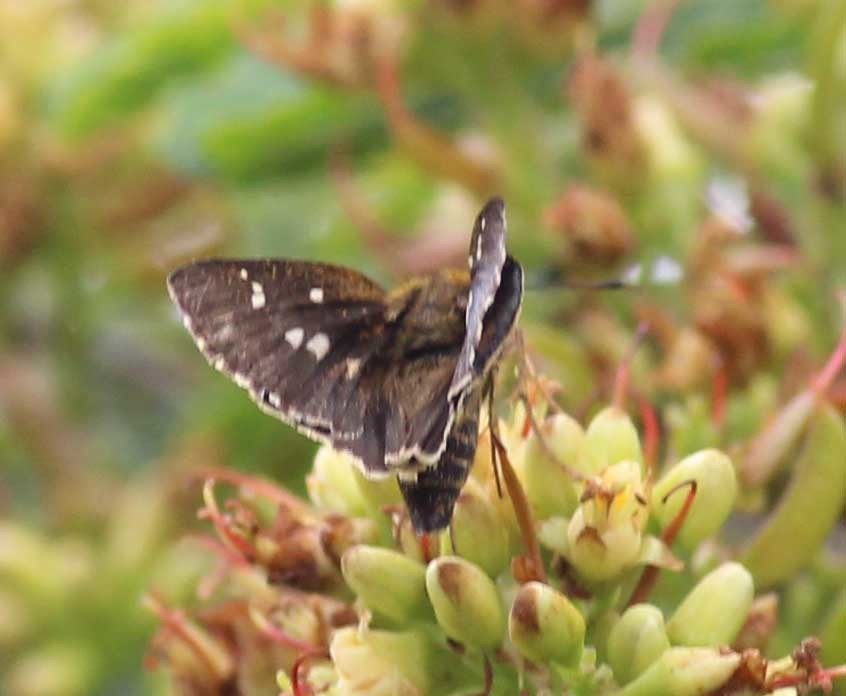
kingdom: Animalia
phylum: Arthropoda
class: Insecta
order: Lepidoptera
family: Hesperiidae
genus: Halpe
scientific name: Halpe homolea
